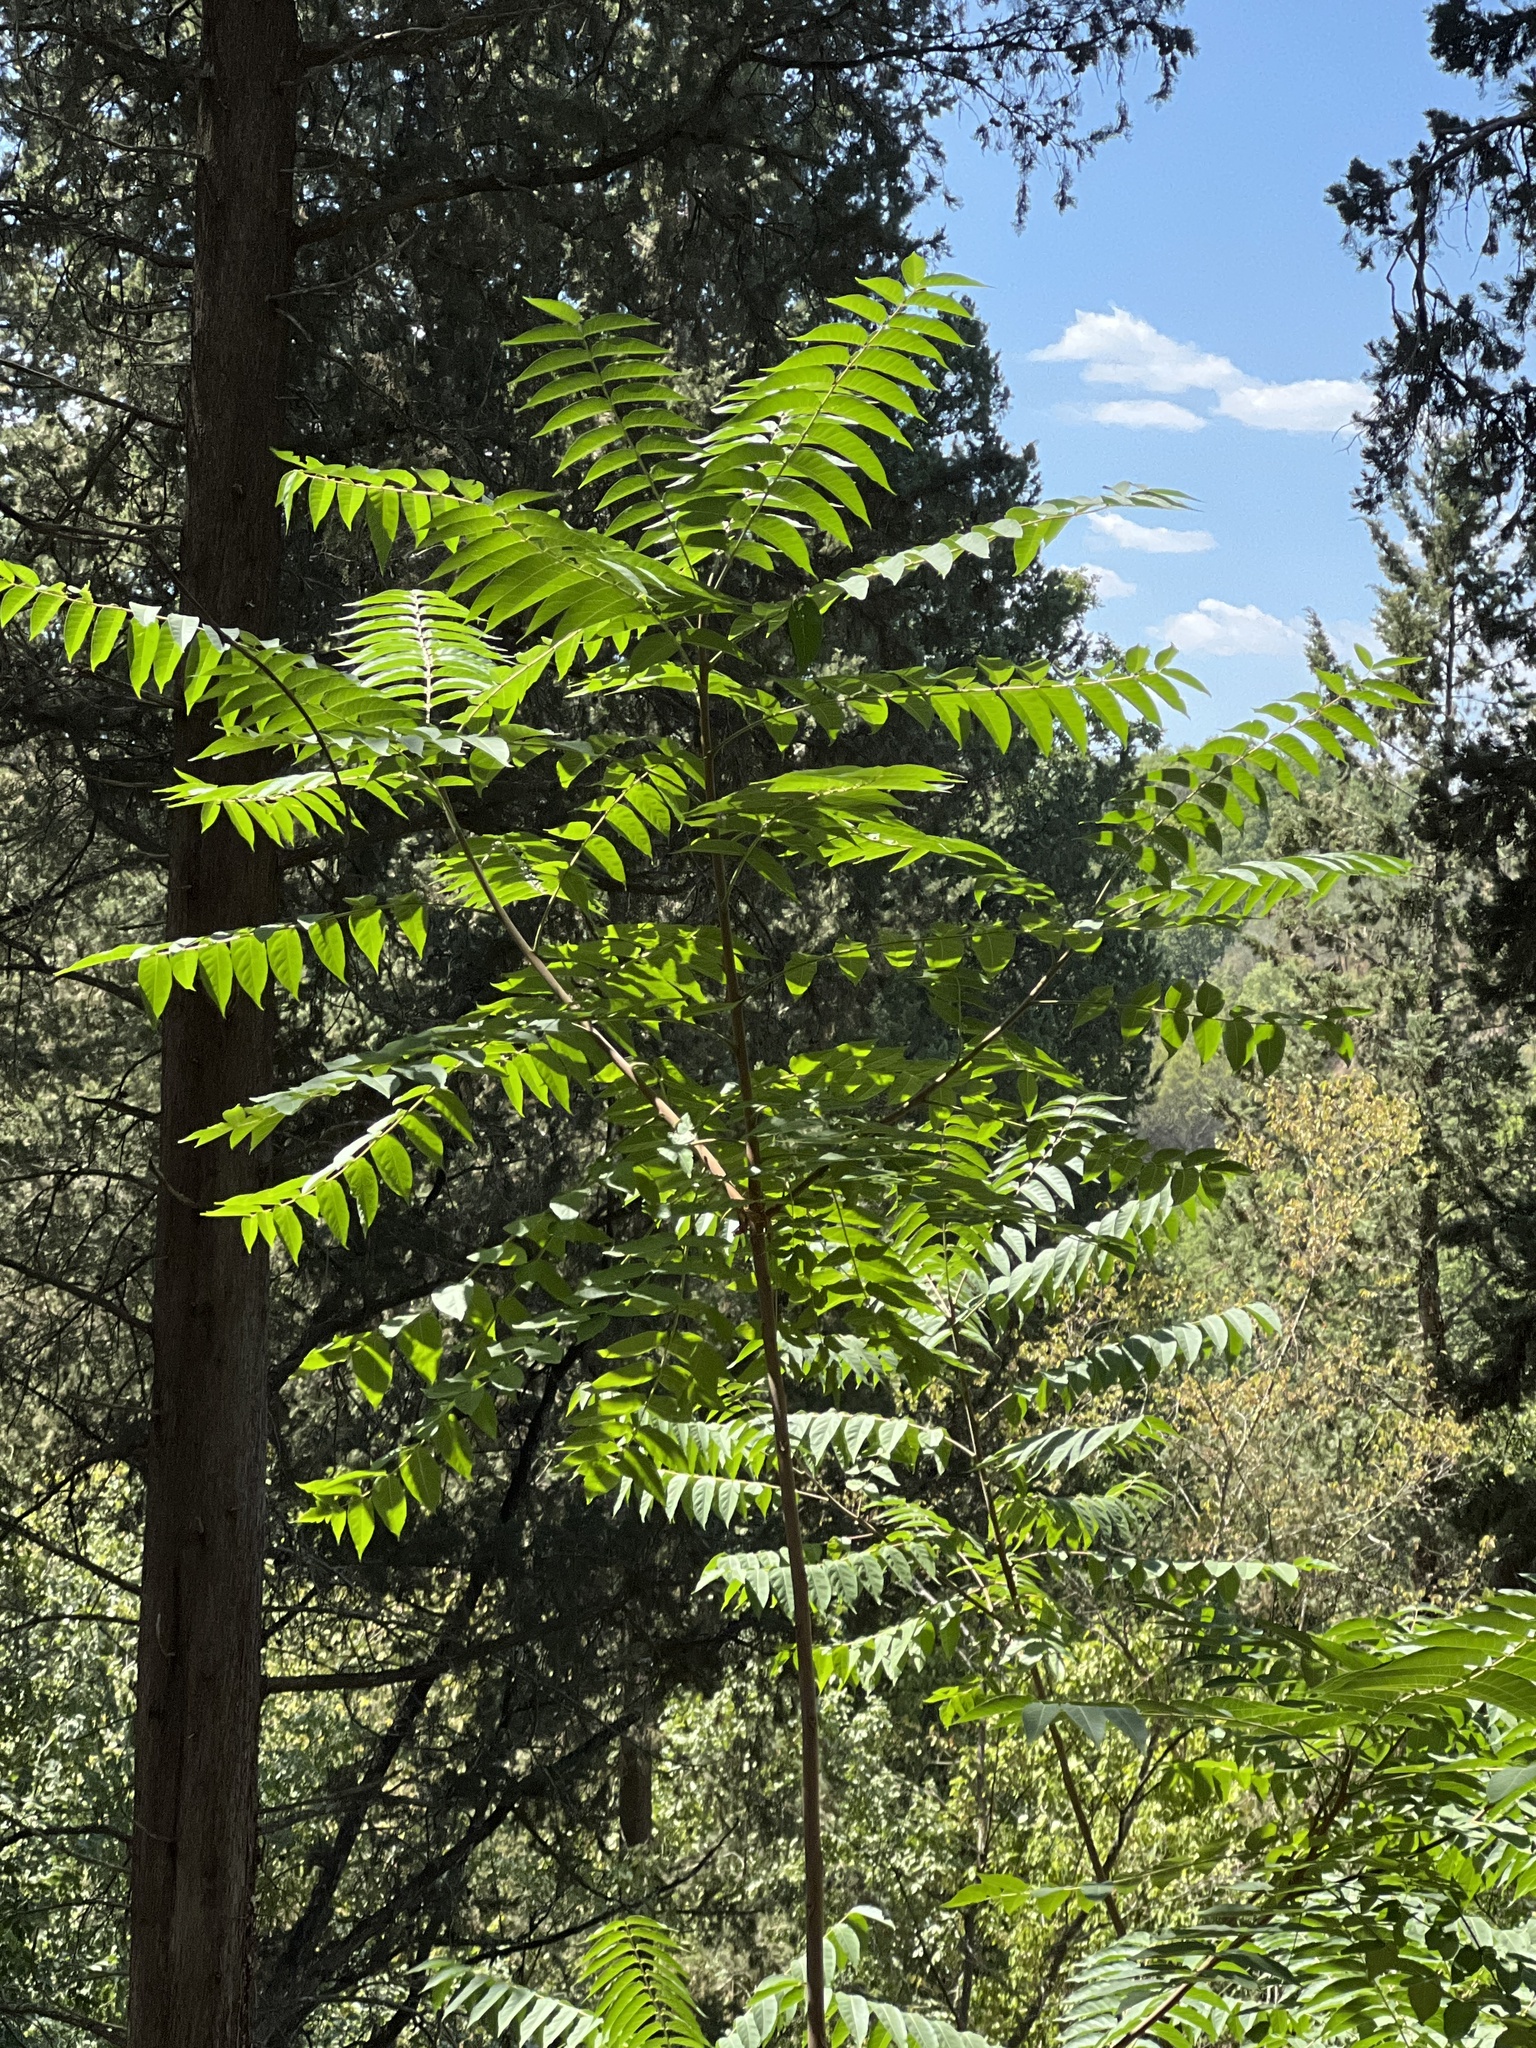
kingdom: Plantae
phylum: Tracheophyta
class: Magnoliopsida
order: Sapindales
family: Simaroubaceae
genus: Ailanthus
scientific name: Ailanthus altissima
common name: Tree-of-heaven
